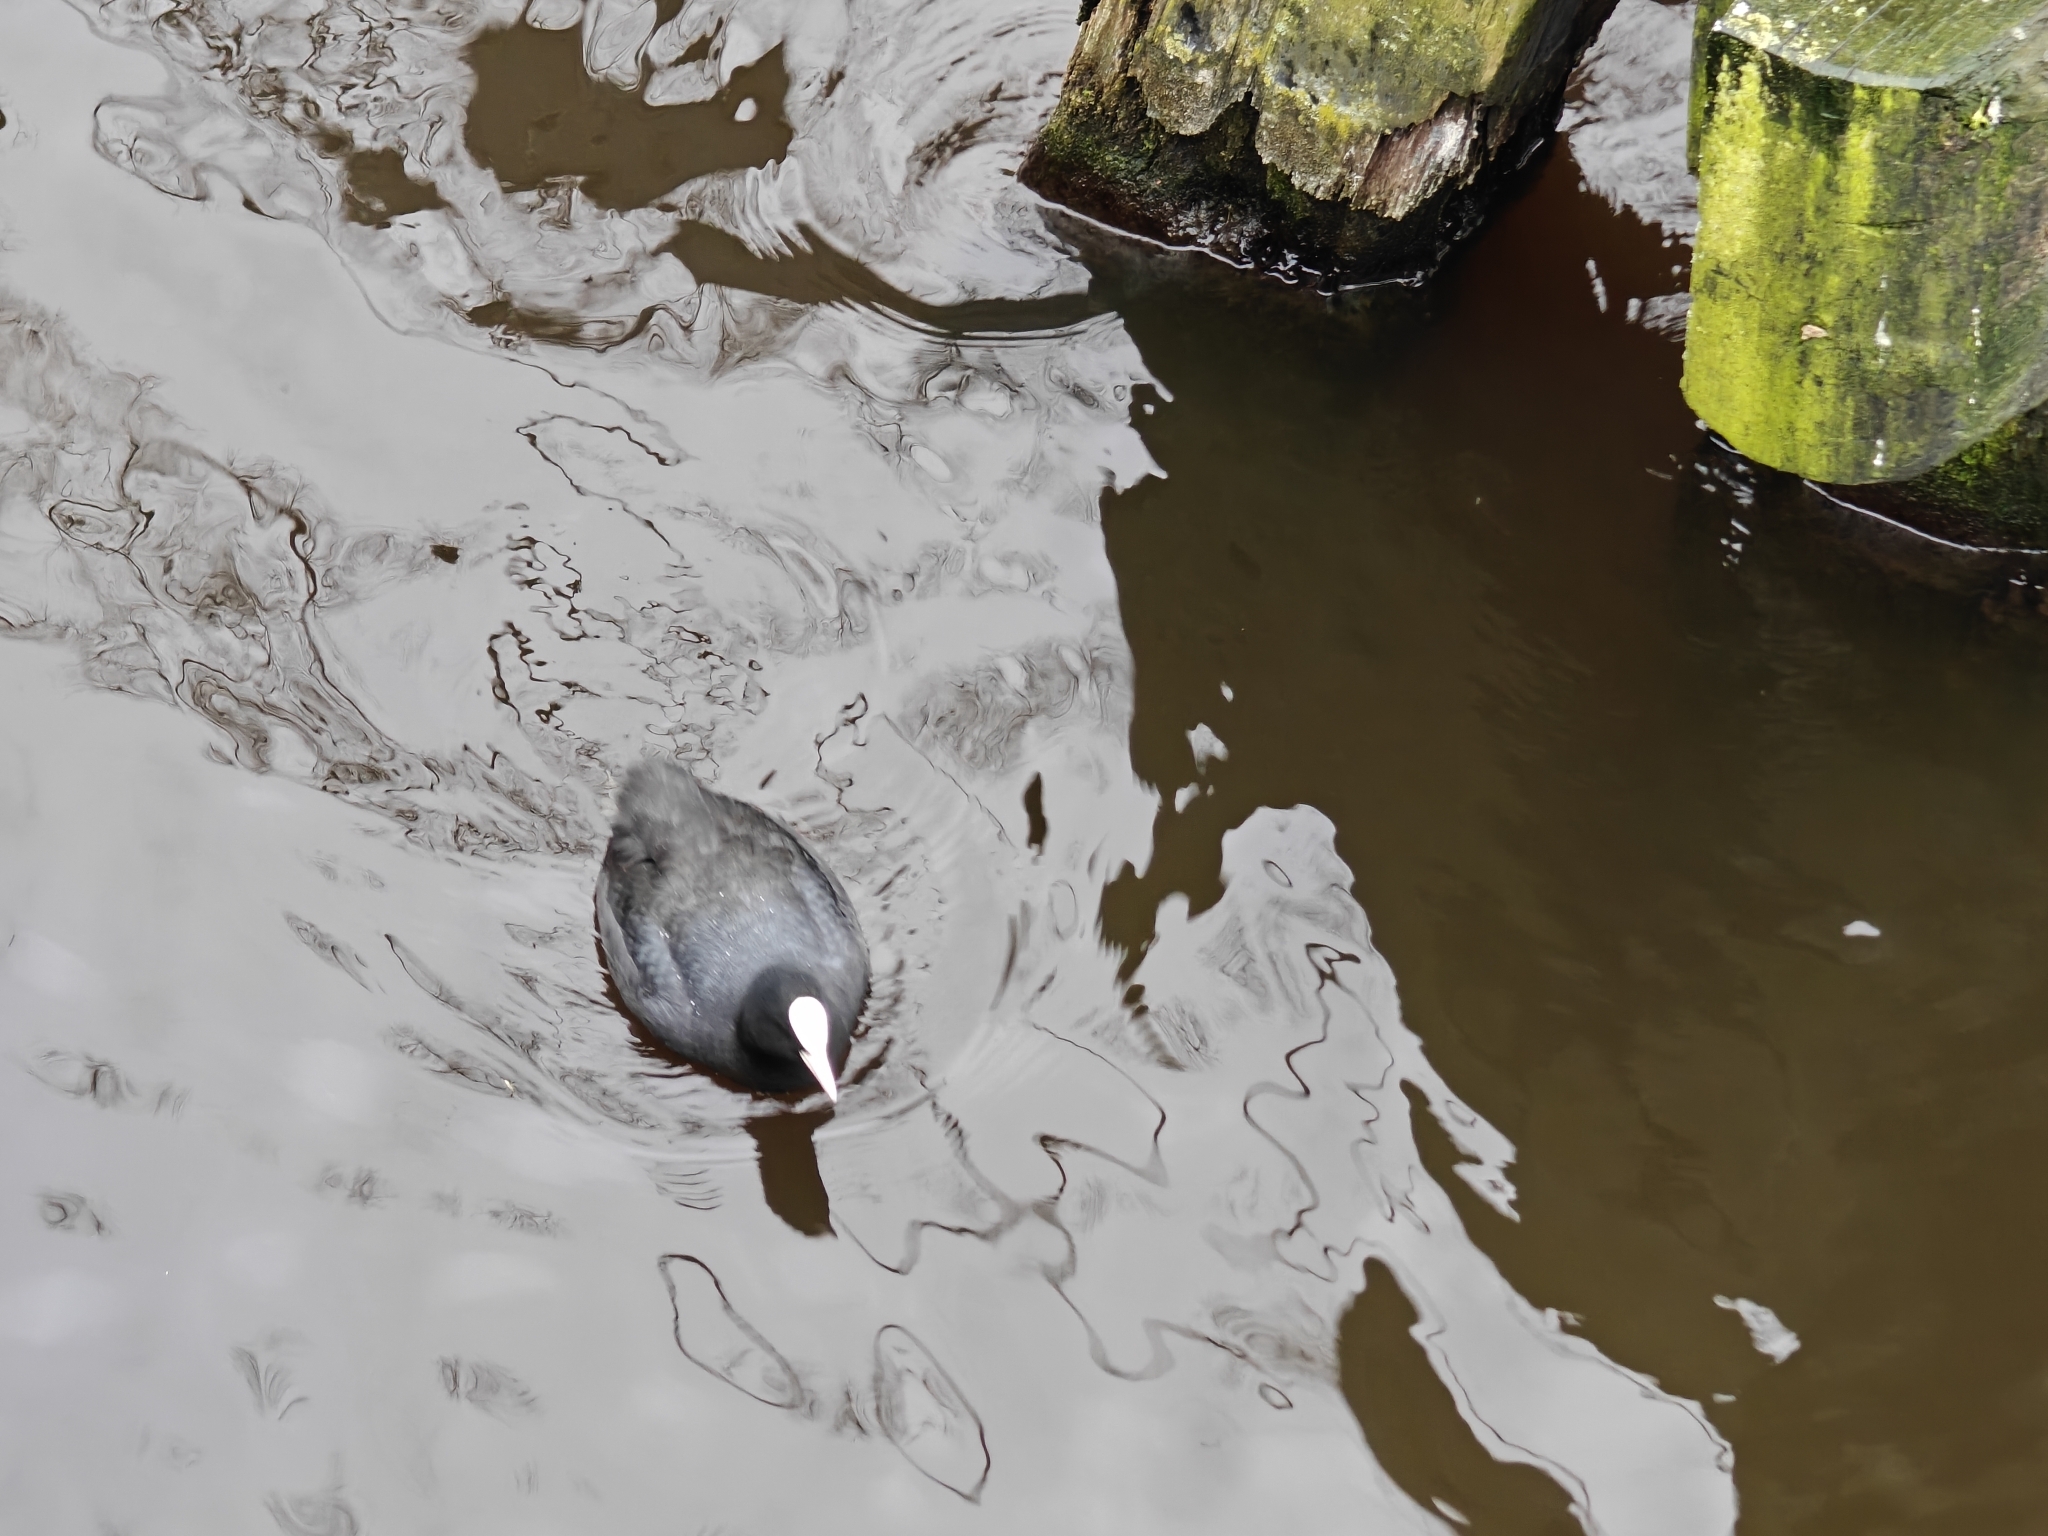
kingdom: Animalia
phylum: Chordata
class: Aves
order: Gruiformes
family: Rallidae
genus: Fulica
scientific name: Fulica atra
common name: Eurasian coot
